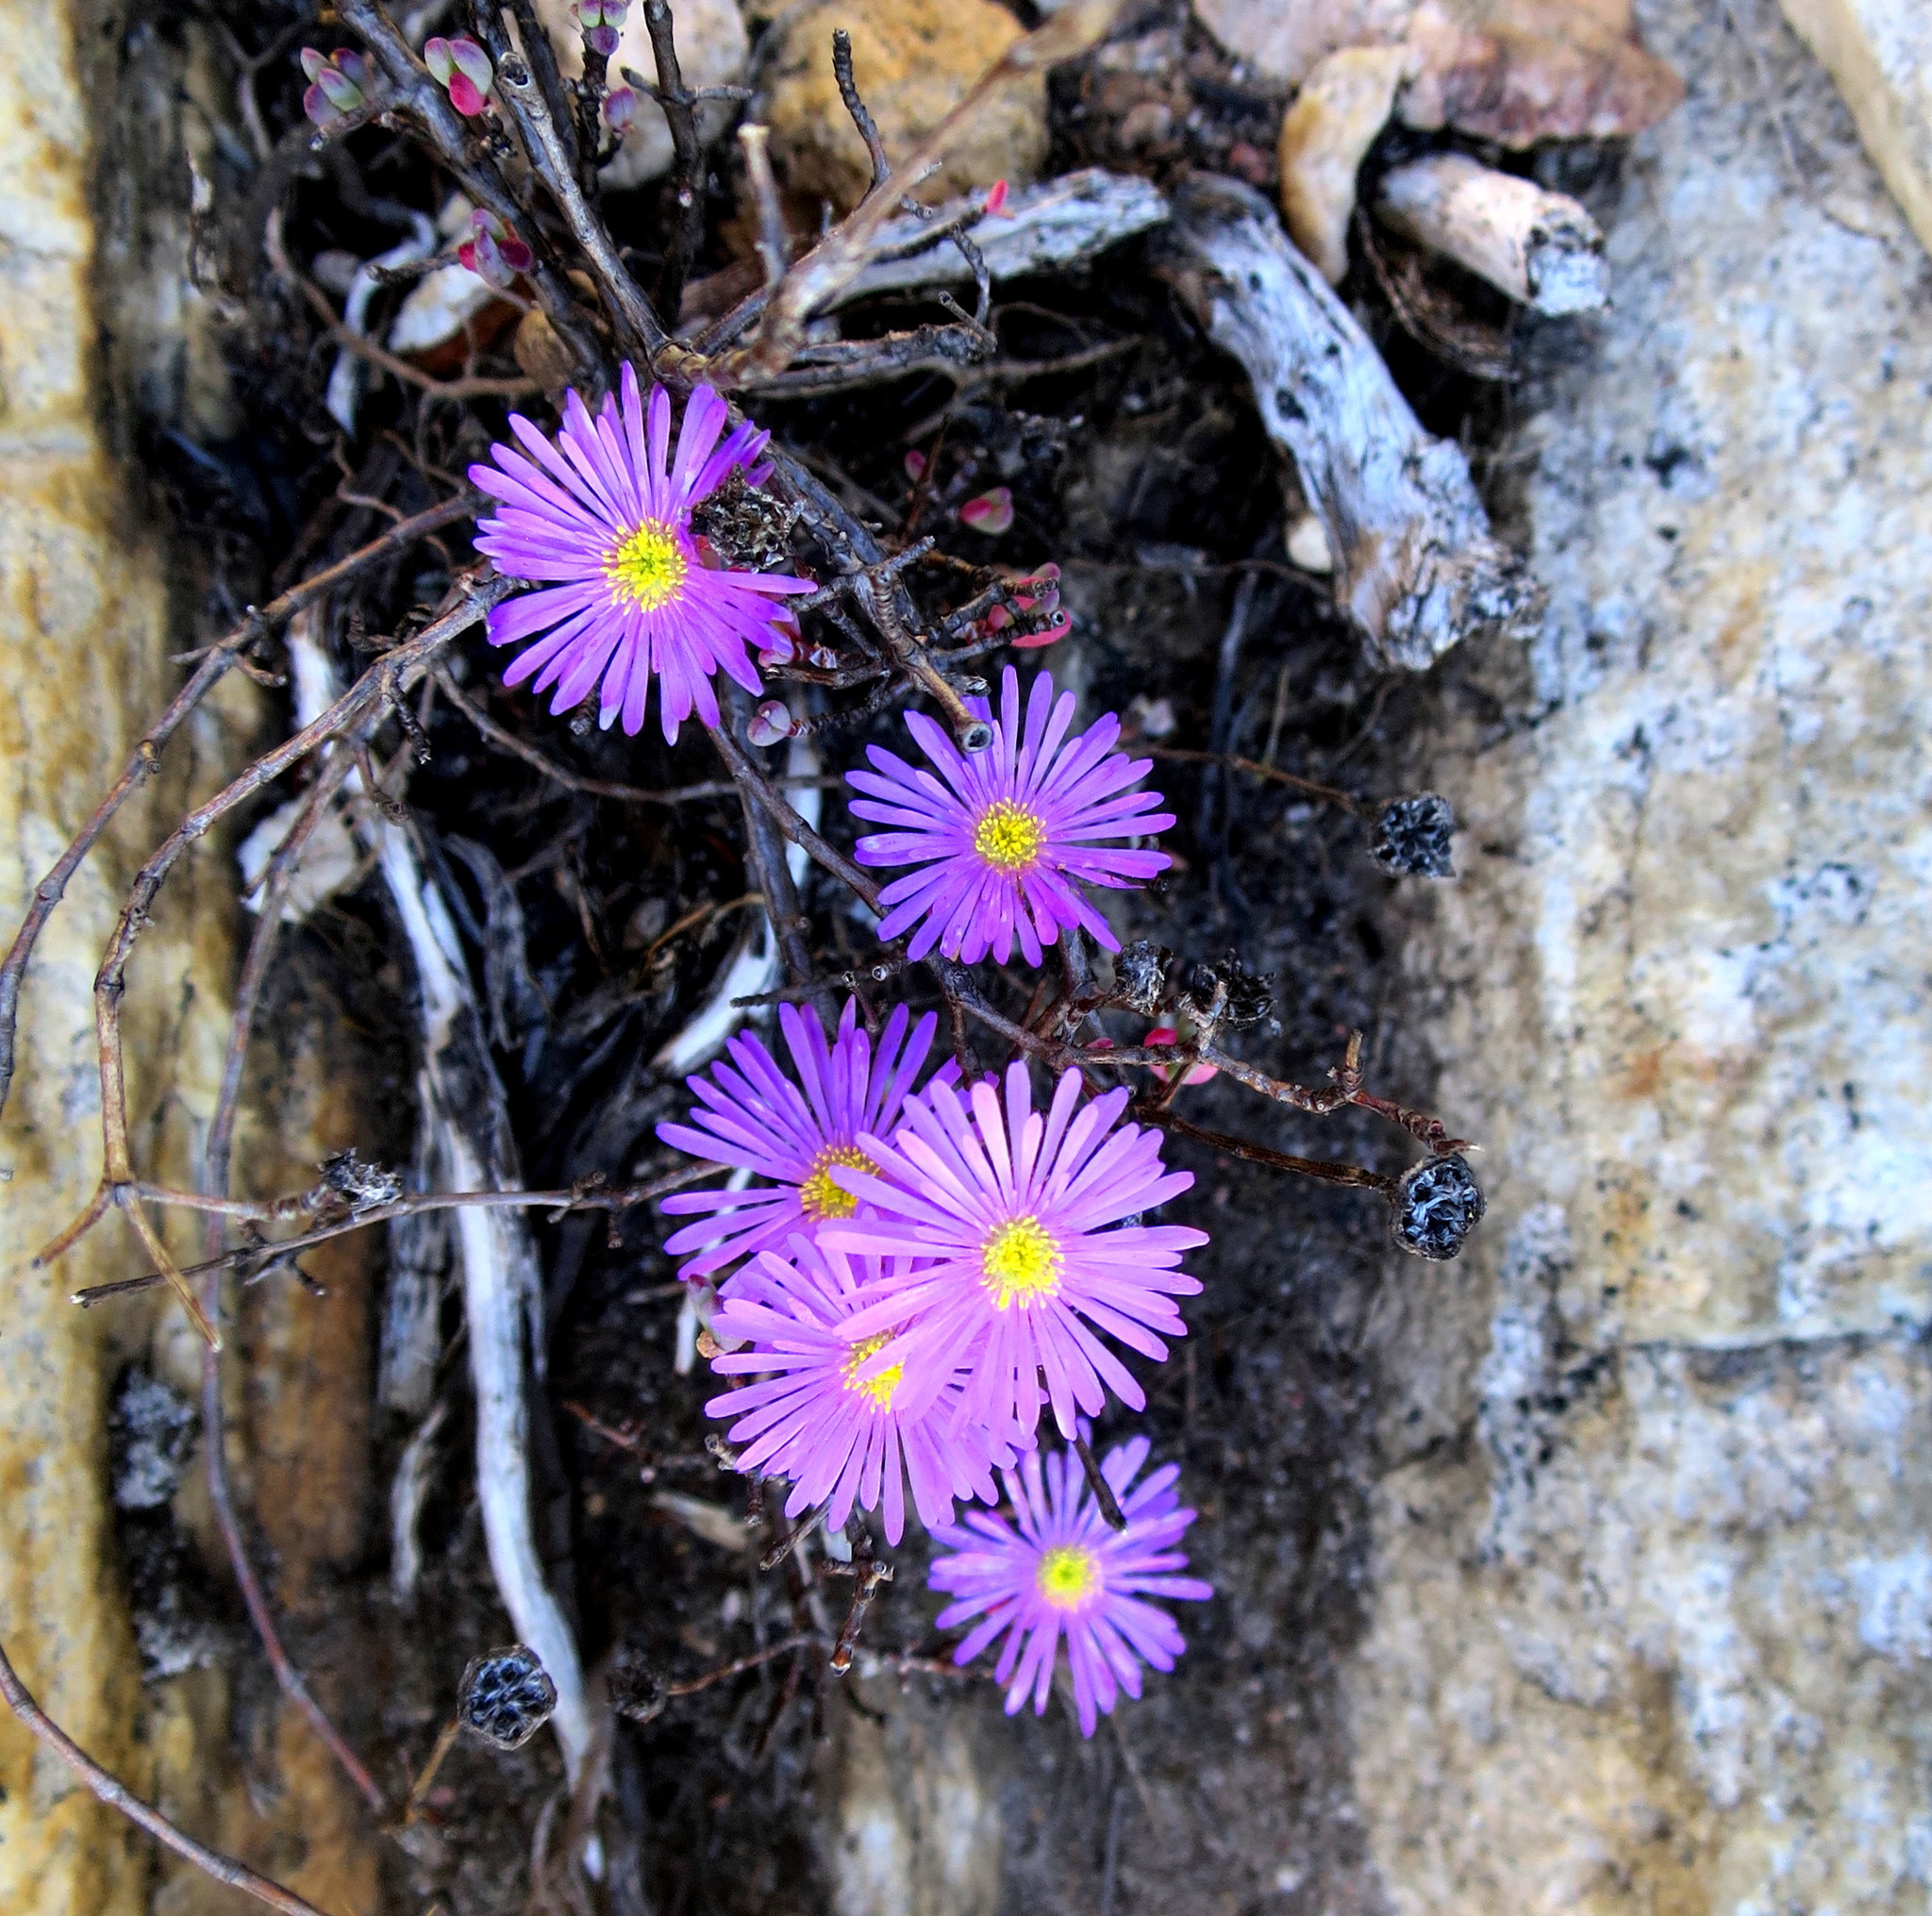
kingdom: Plantae
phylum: Tracheophyta
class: Magnoliopsida
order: Caryophyllales
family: Aizoaceae
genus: Lampranthus
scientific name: Lampranthus swartbergensis
